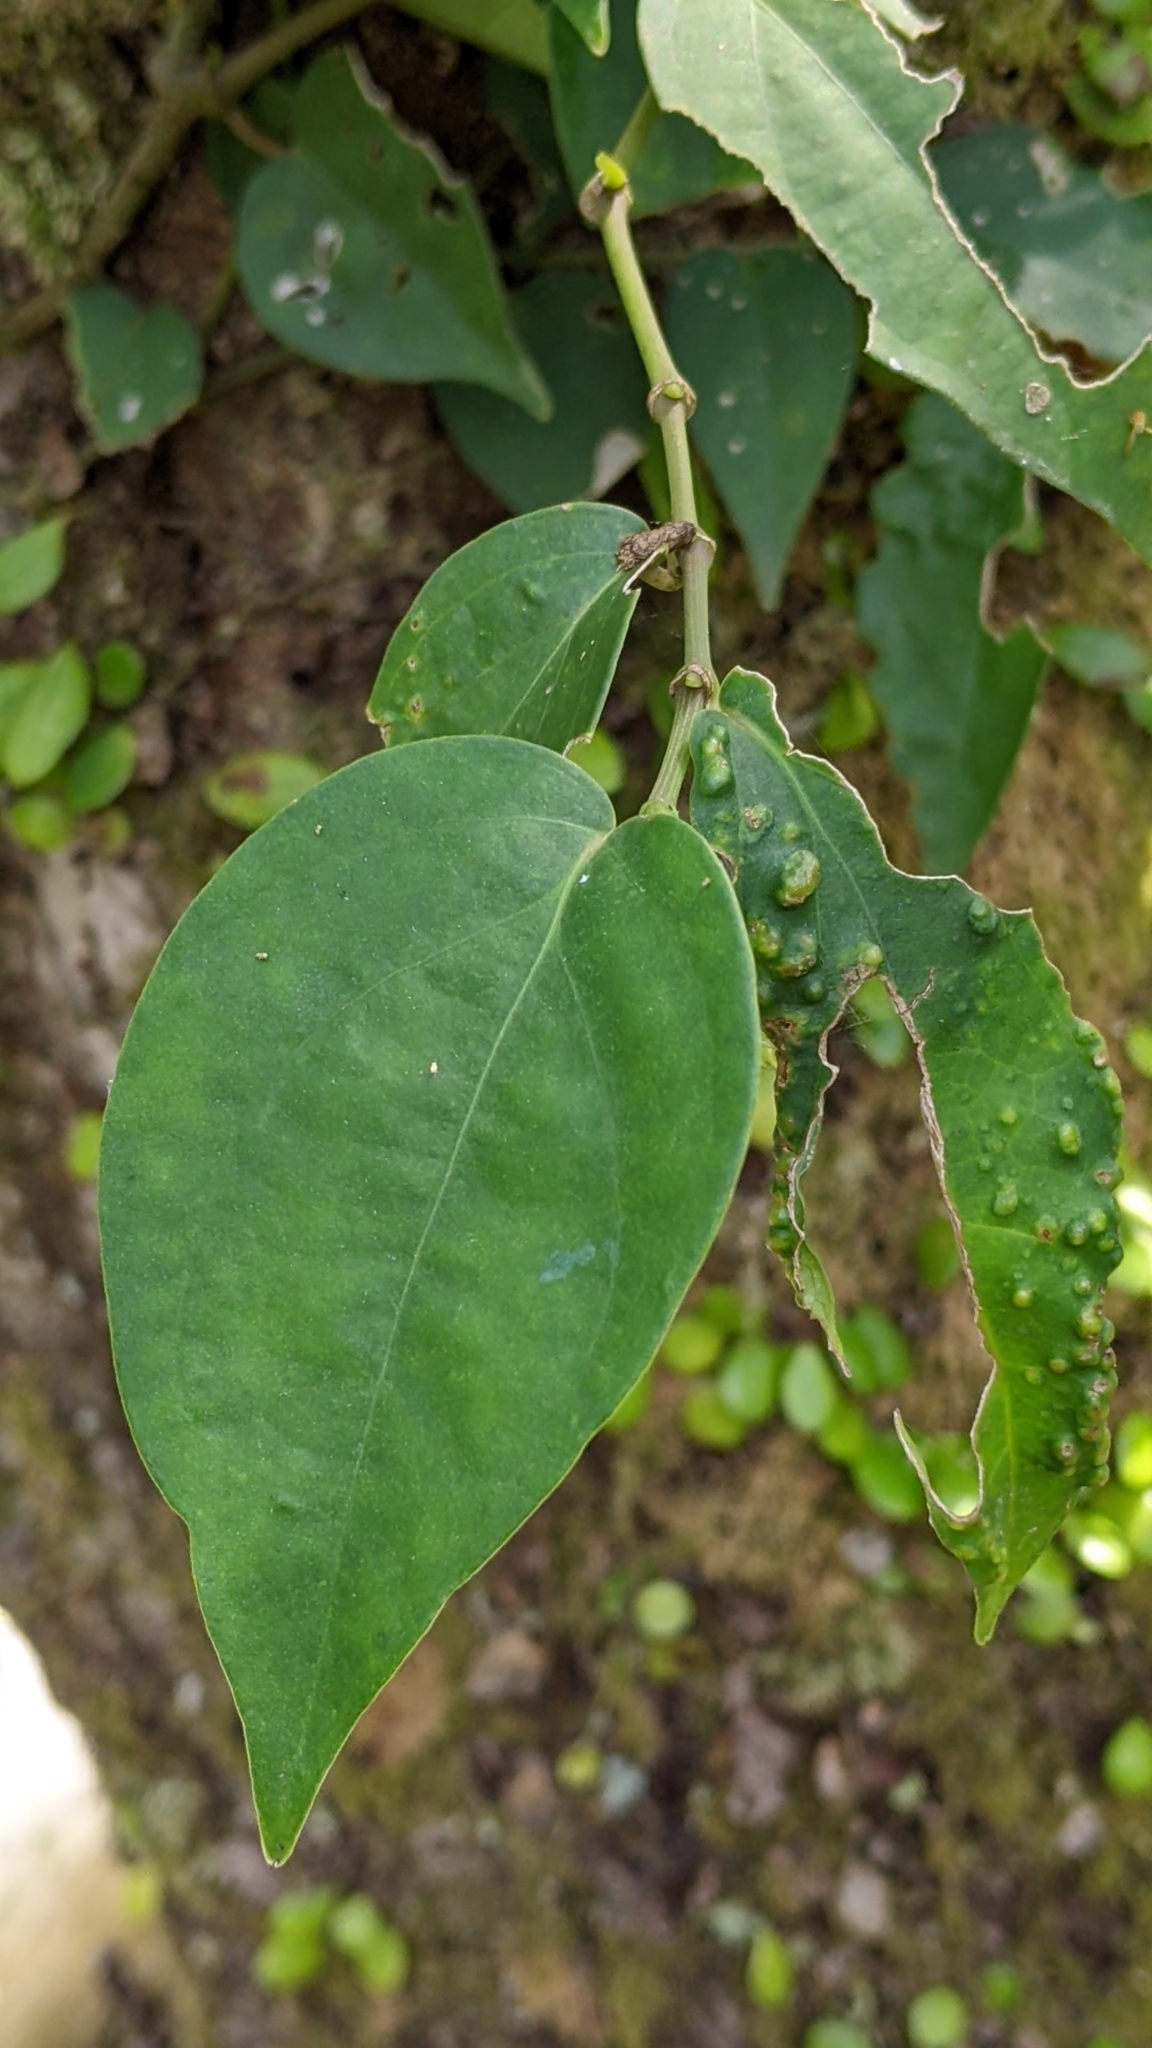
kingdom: Plantae
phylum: Tracheophyta
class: Magnoliopsida
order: Piperales
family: Piperaceae
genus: Piper
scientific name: Piper kadsura
